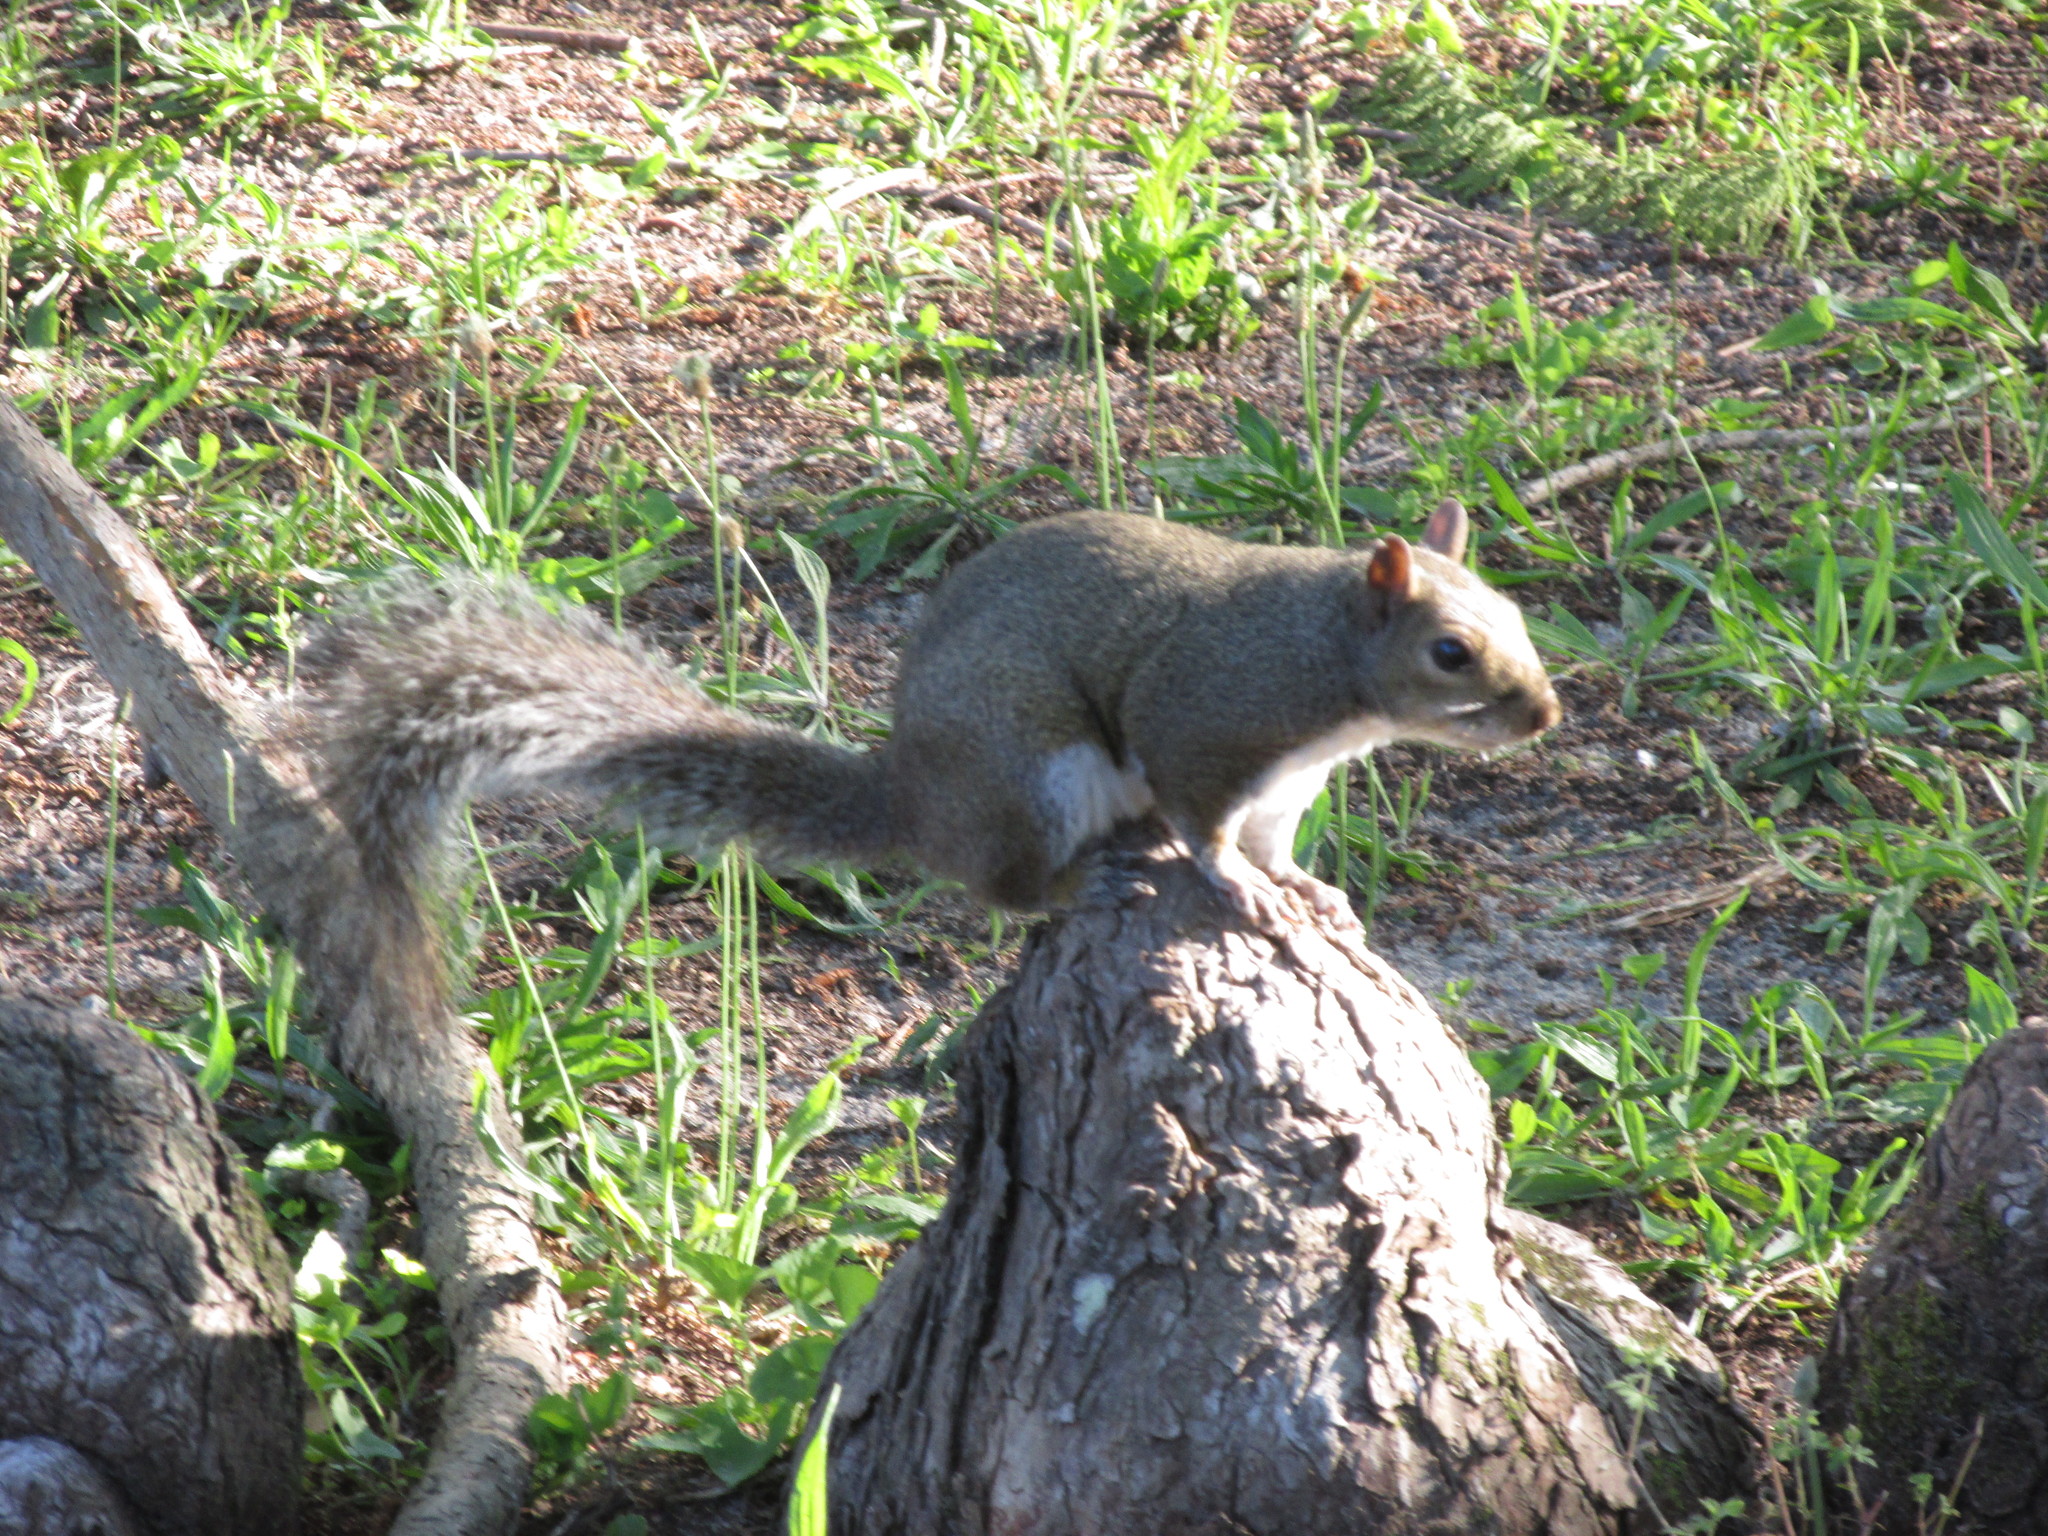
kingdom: Animalia
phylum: Chordata
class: Mammalia
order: Rodentia
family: Sciuridae
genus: Sciurus
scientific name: Sciurus carolinensis
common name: Eastern gray squirrel
